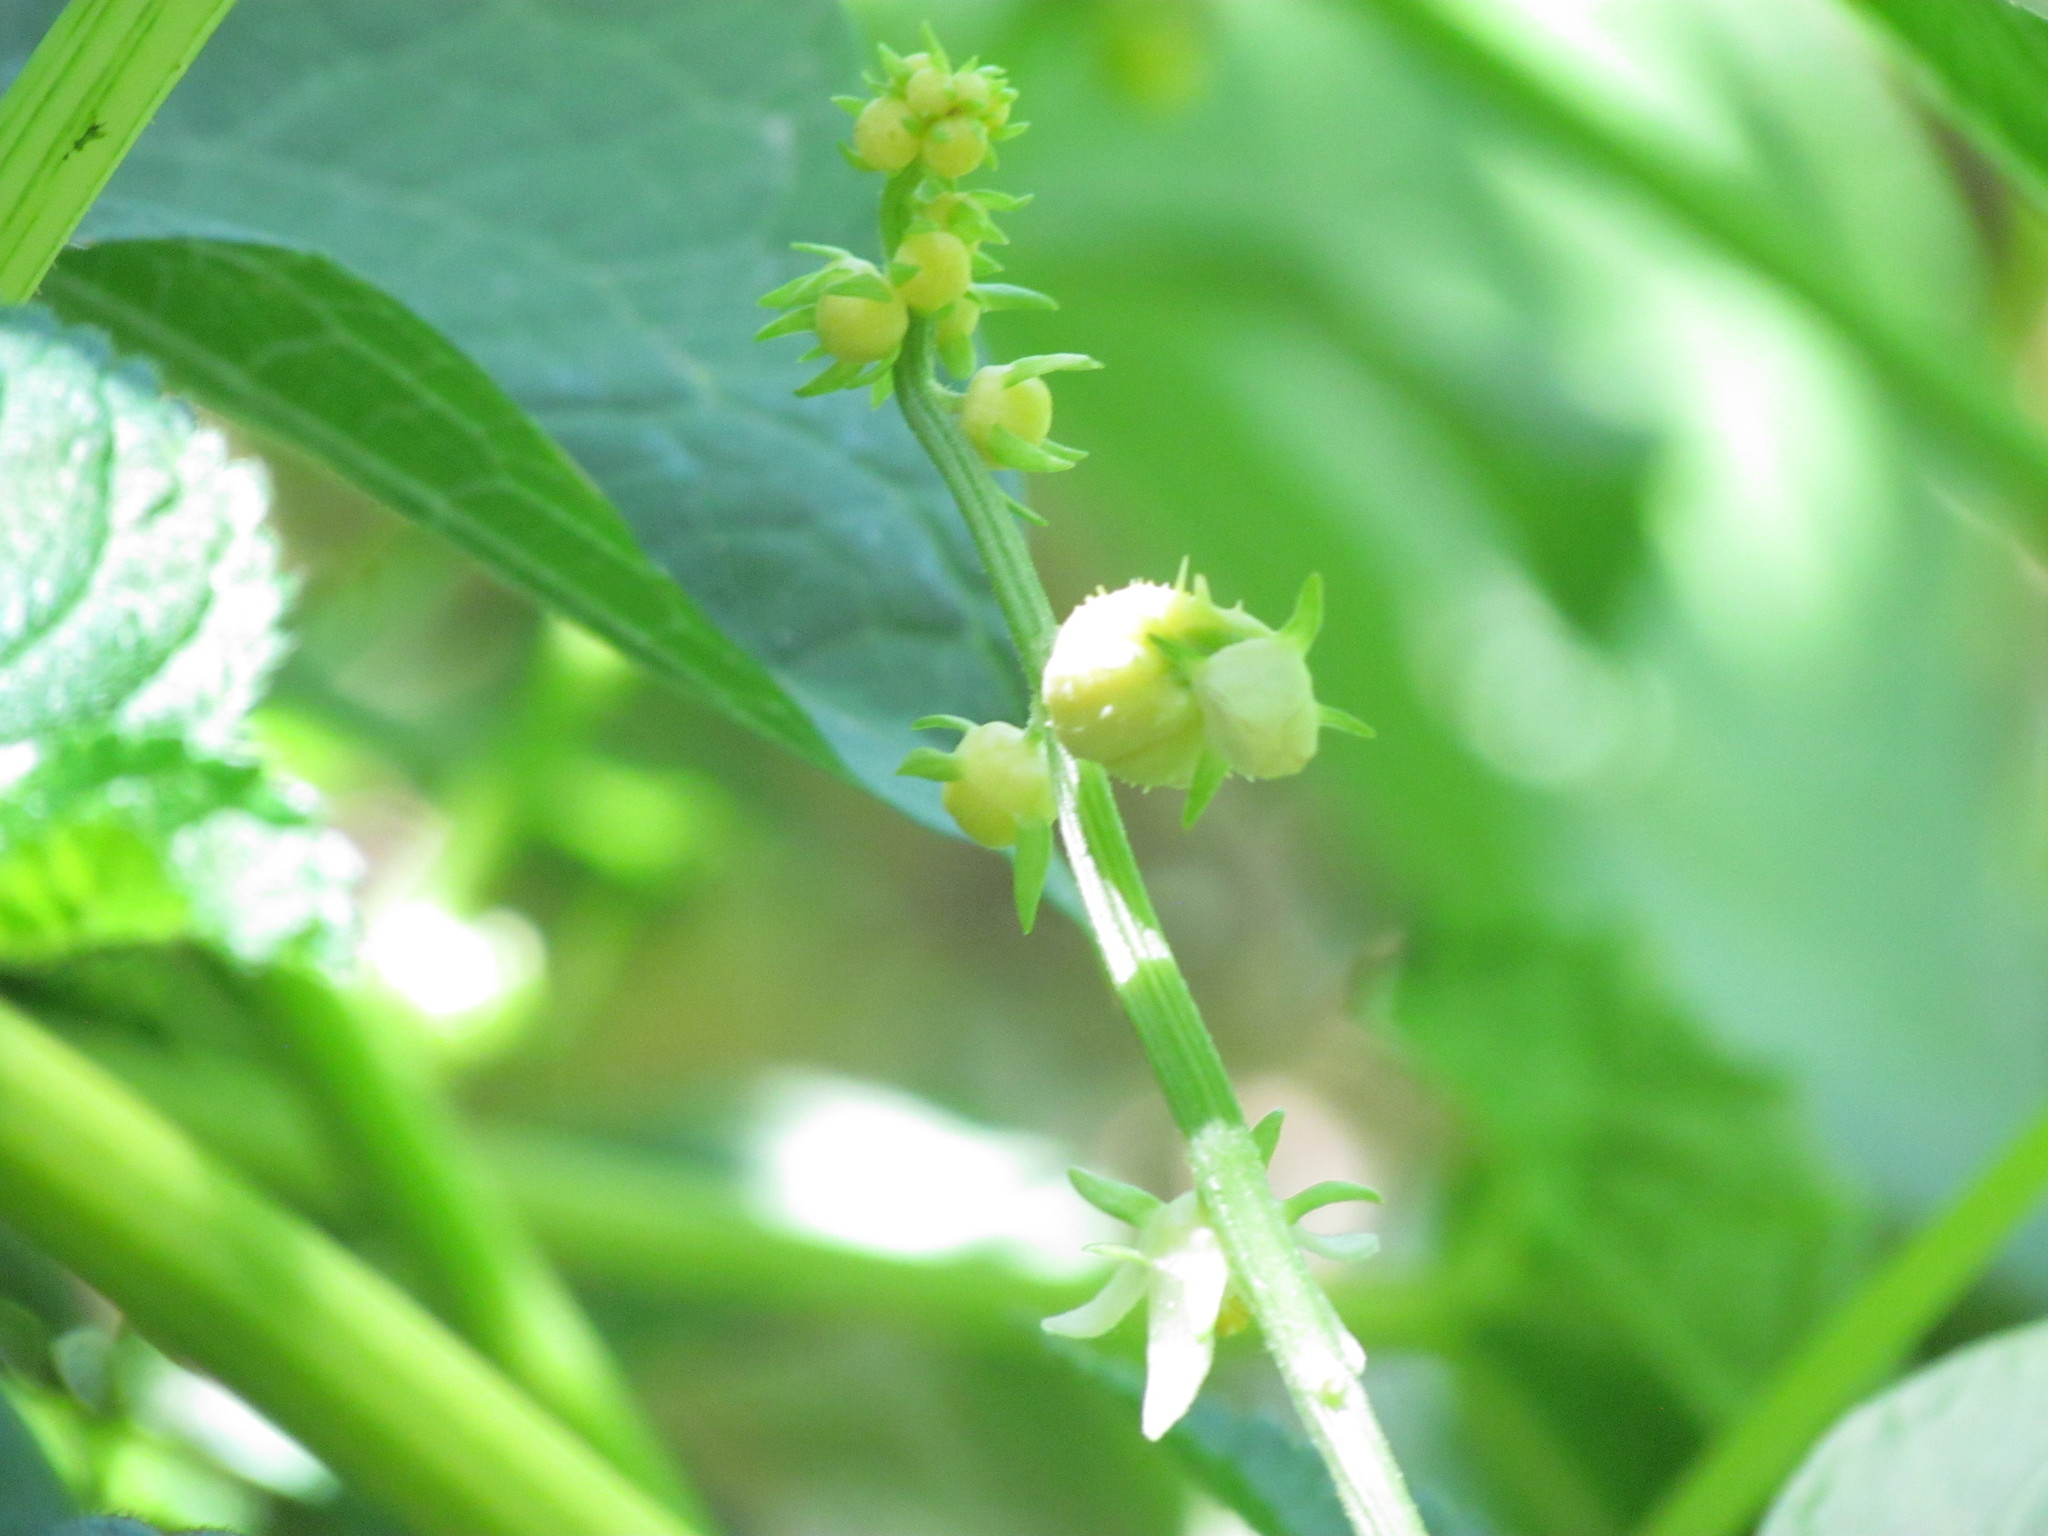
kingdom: Plantae
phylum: Tracheophyta
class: Magnoliopsida
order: Cucurbitales
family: Cucurbitaceae
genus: Sechium
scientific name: Sechium edule
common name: Chayote
